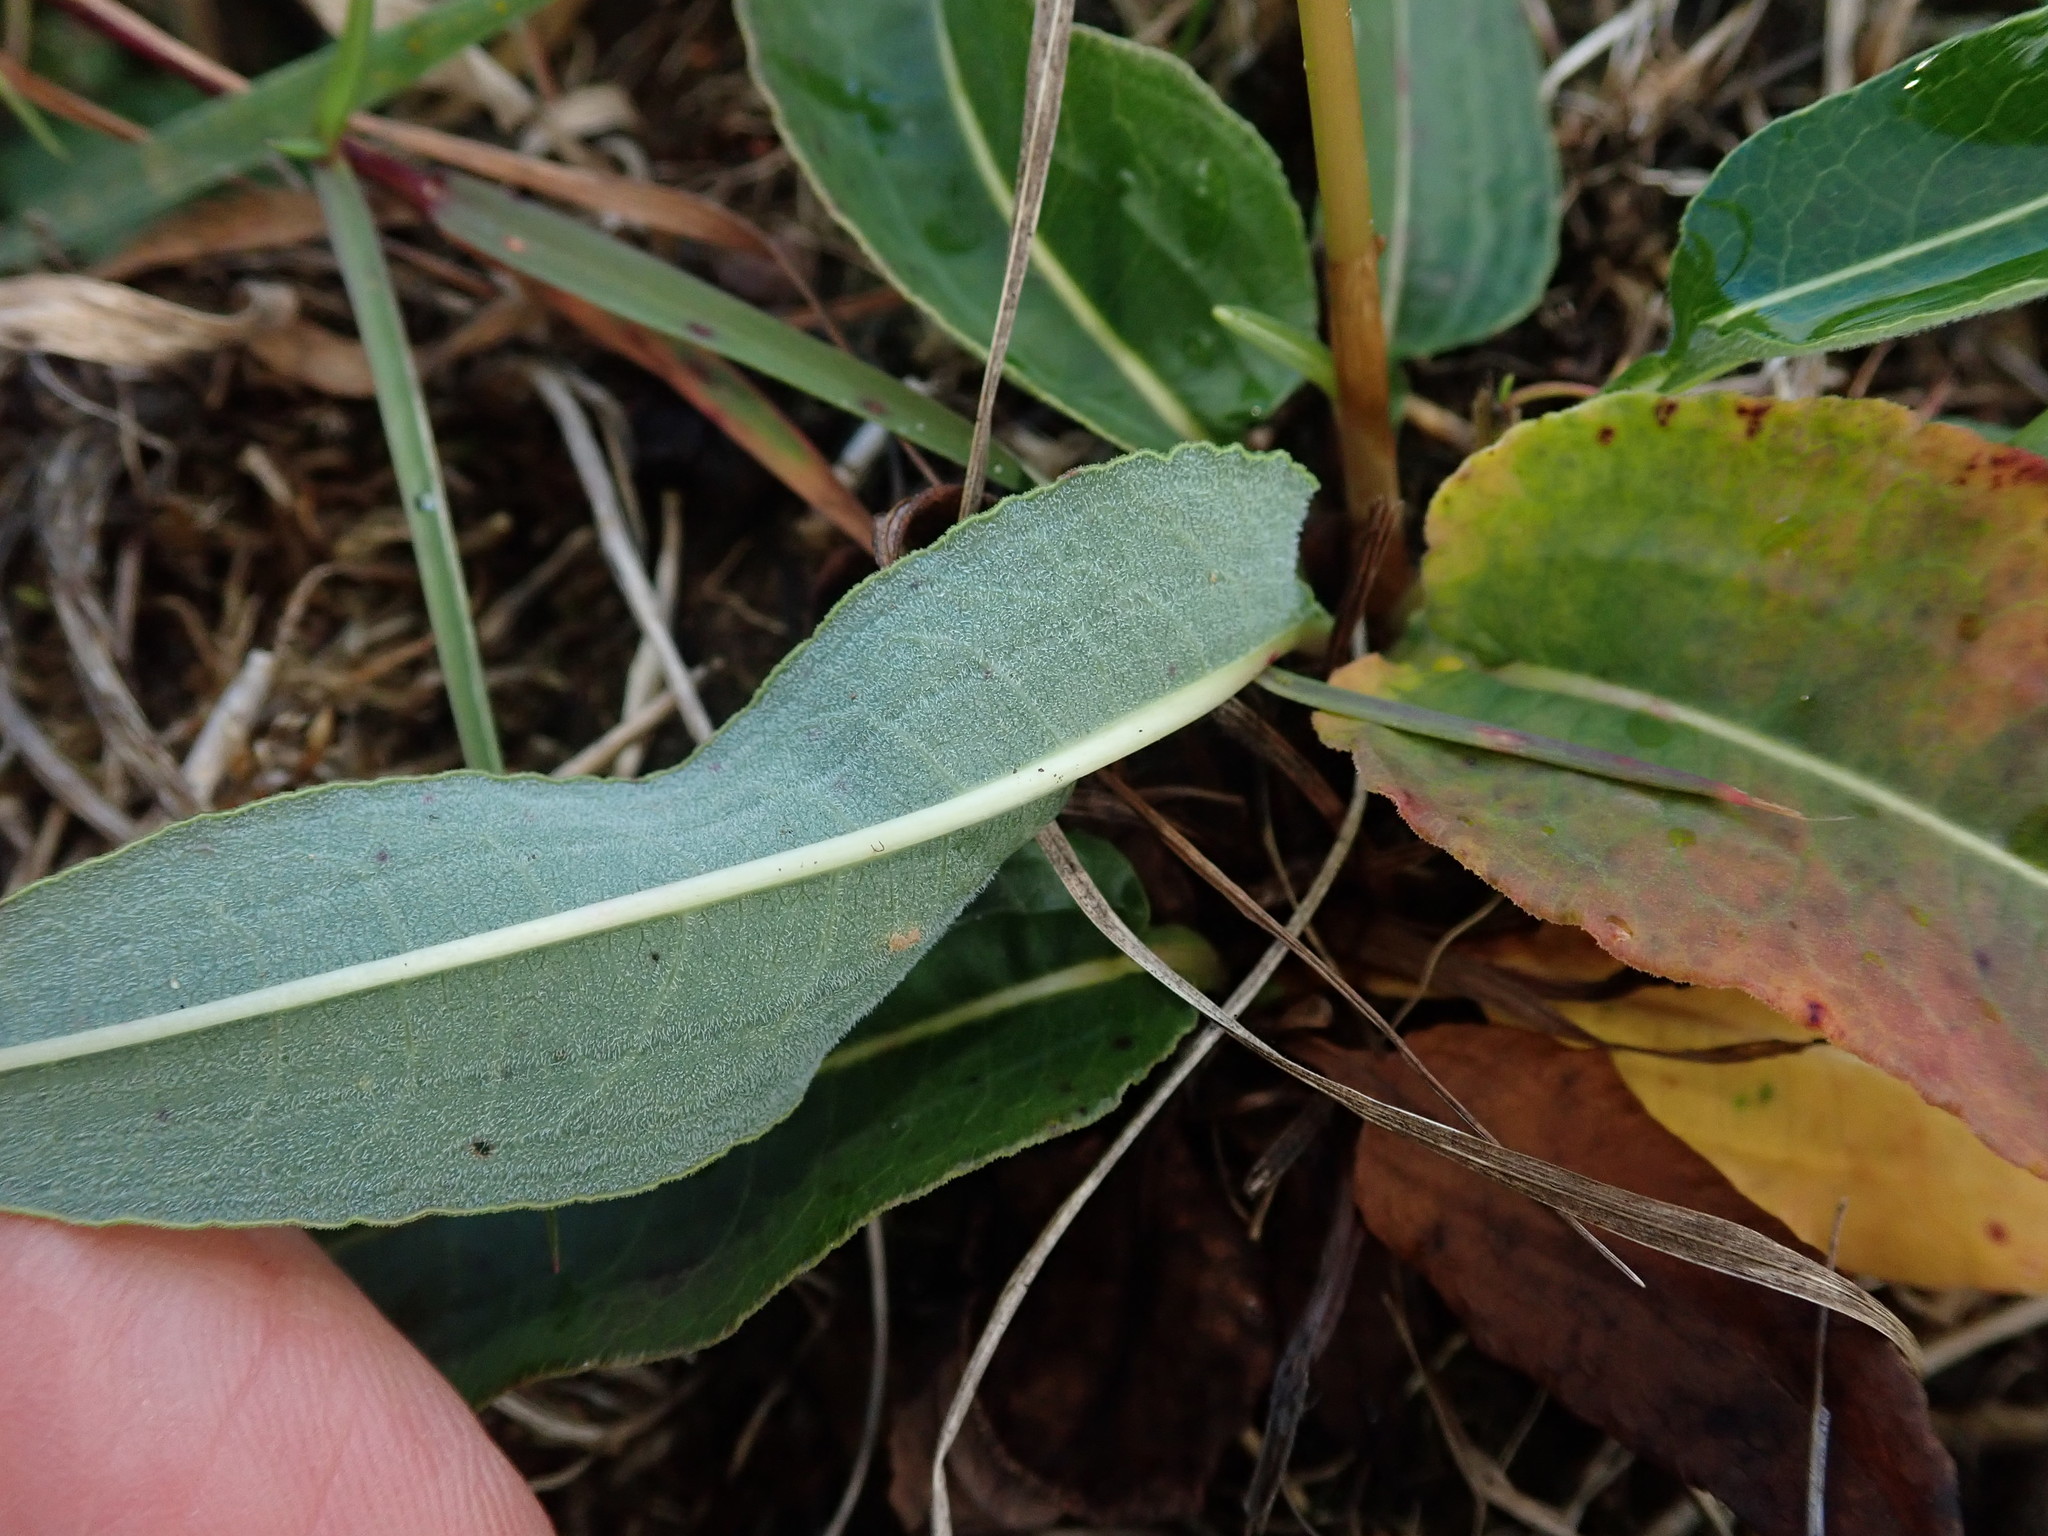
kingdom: Plantae
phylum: Tracheophyta
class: Magnoliopsida
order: Caryophyllales
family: Polygonaceae
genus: Bistorta
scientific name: Bistorta officinalis
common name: Common bistort
